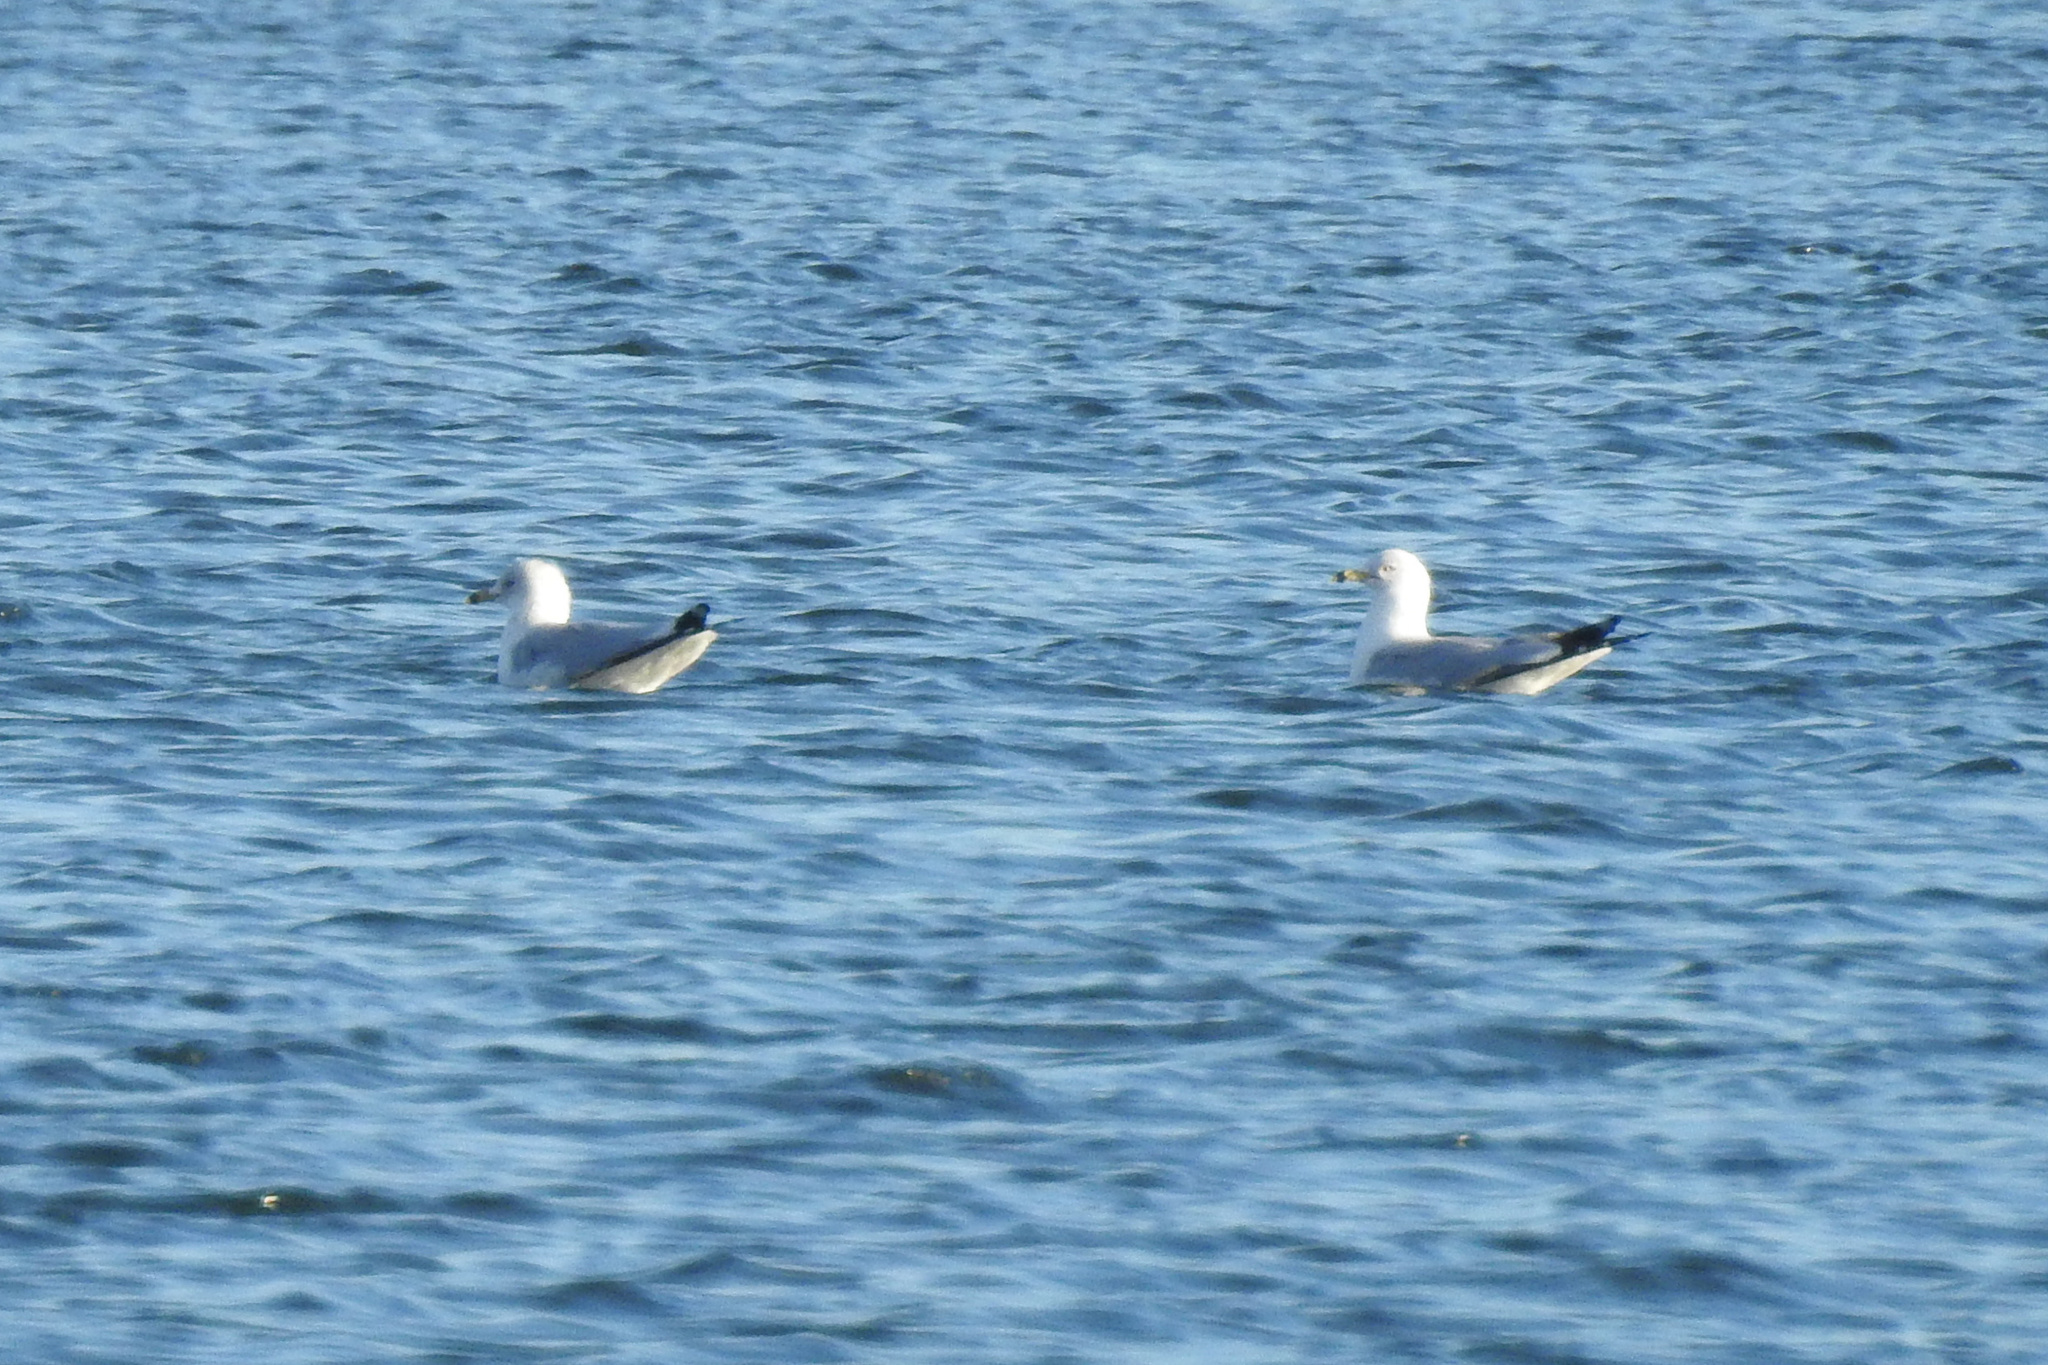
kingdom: Animalia
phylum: Chordata
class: Aves
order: Charadriiformes
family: Laridae
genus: Larus
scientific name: Larus delawarensis
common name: Ring-billed gull
